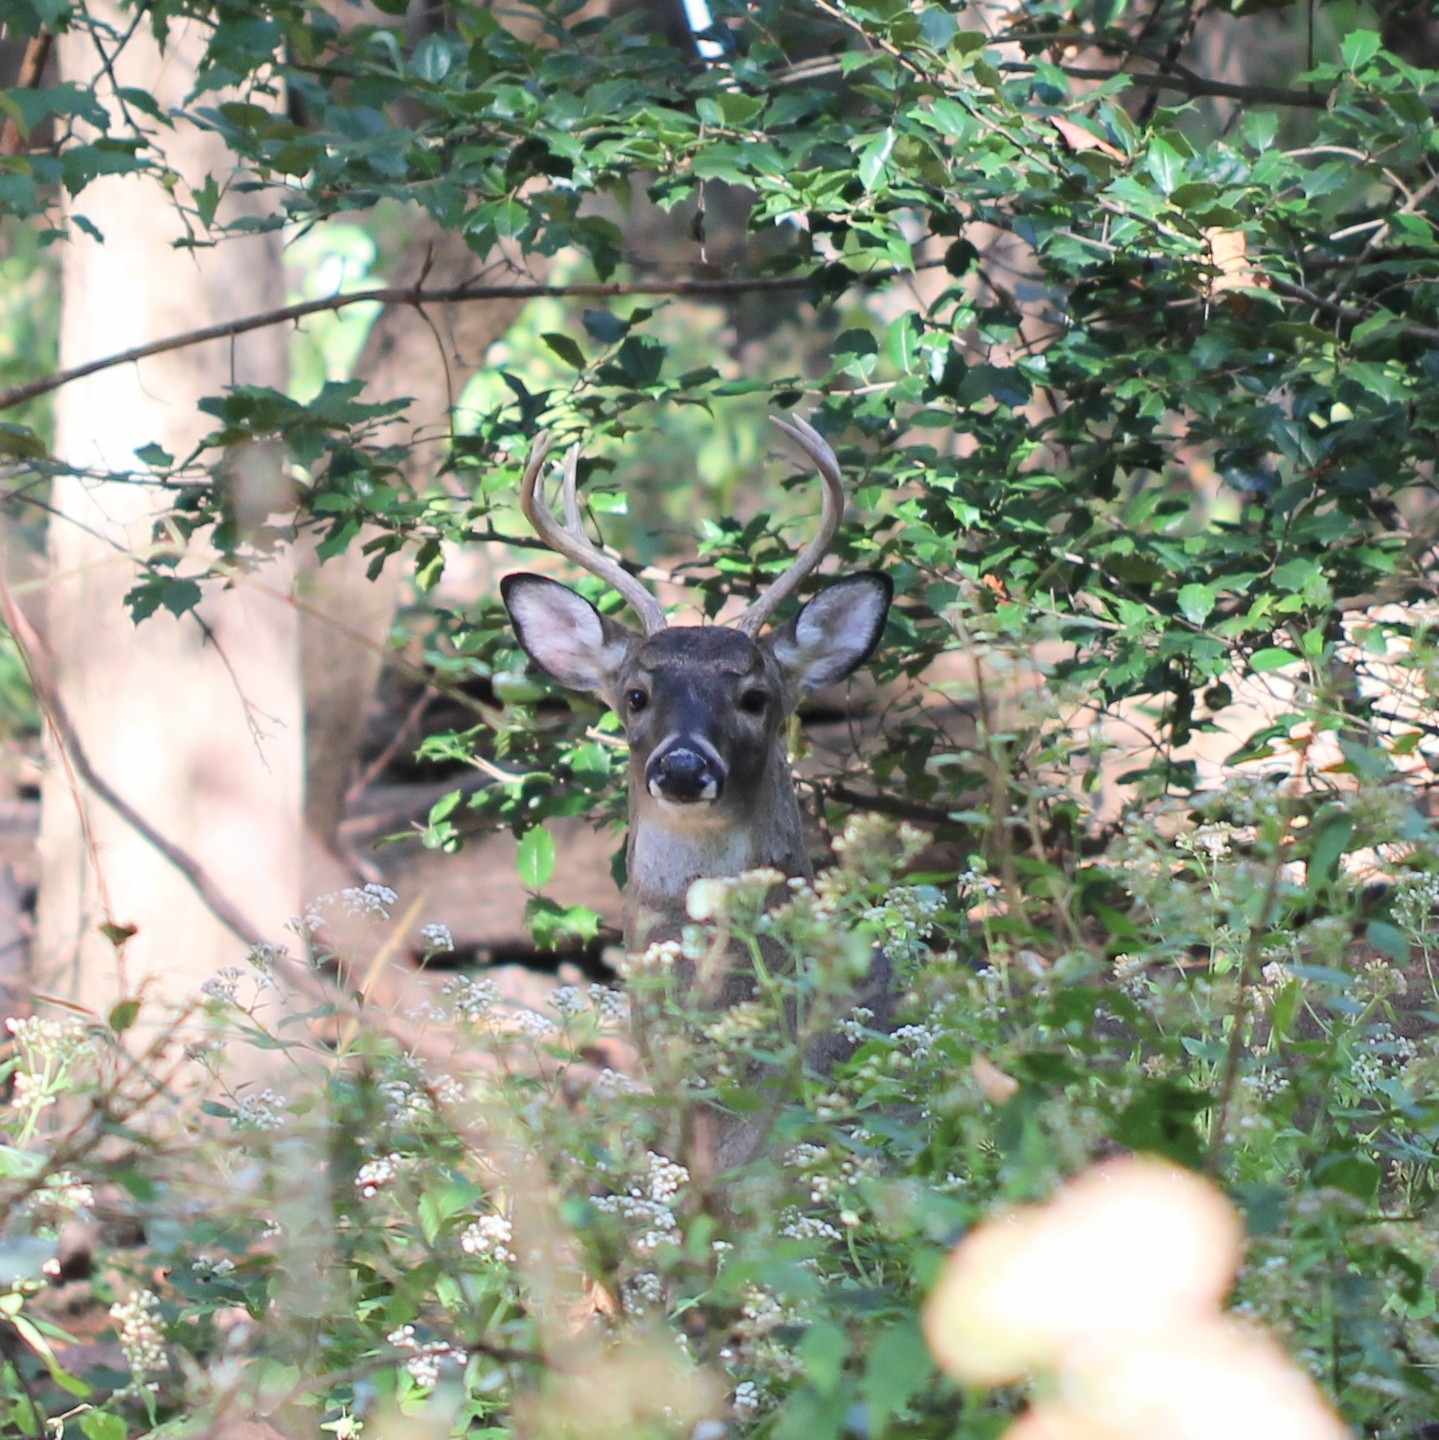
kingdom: Animalia
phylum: Chordata
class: Mammalia
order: Artiodactyla
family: Cervidae
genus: Odocoileus
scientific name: Odocoileus virginianus
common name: White-tailed deer
